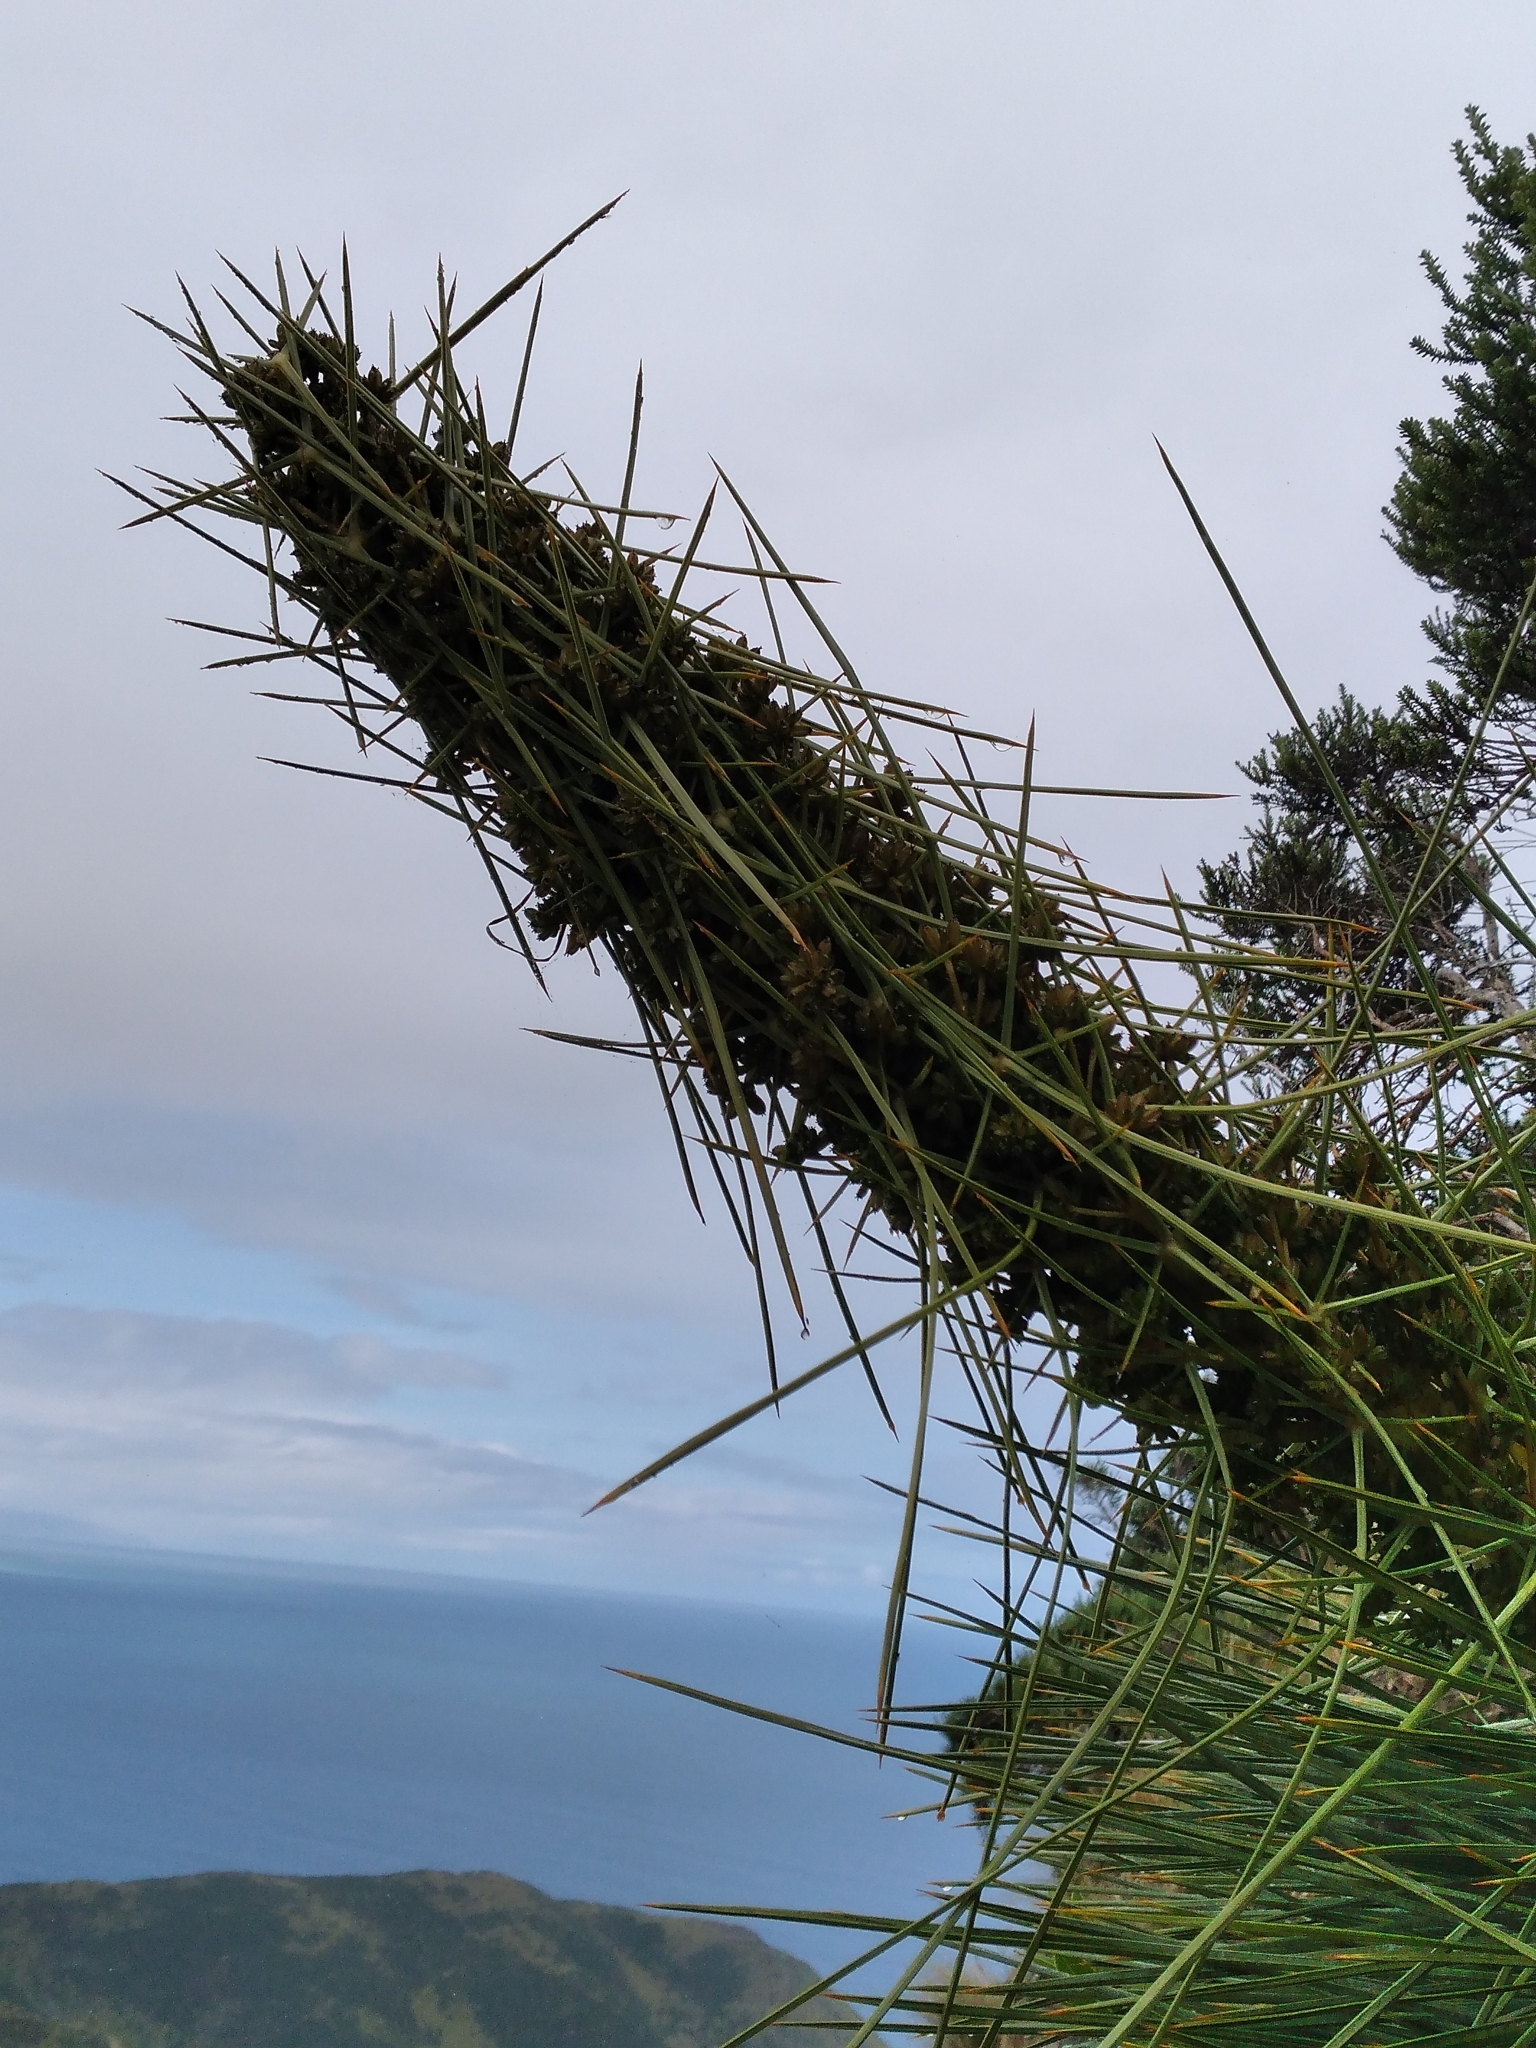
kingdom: Plantae
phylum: Tracheophyta
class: Magnoliopsida
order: Apiales
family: Apiaceae
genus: Aciphylla
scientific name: Aciphylla squarrosa
